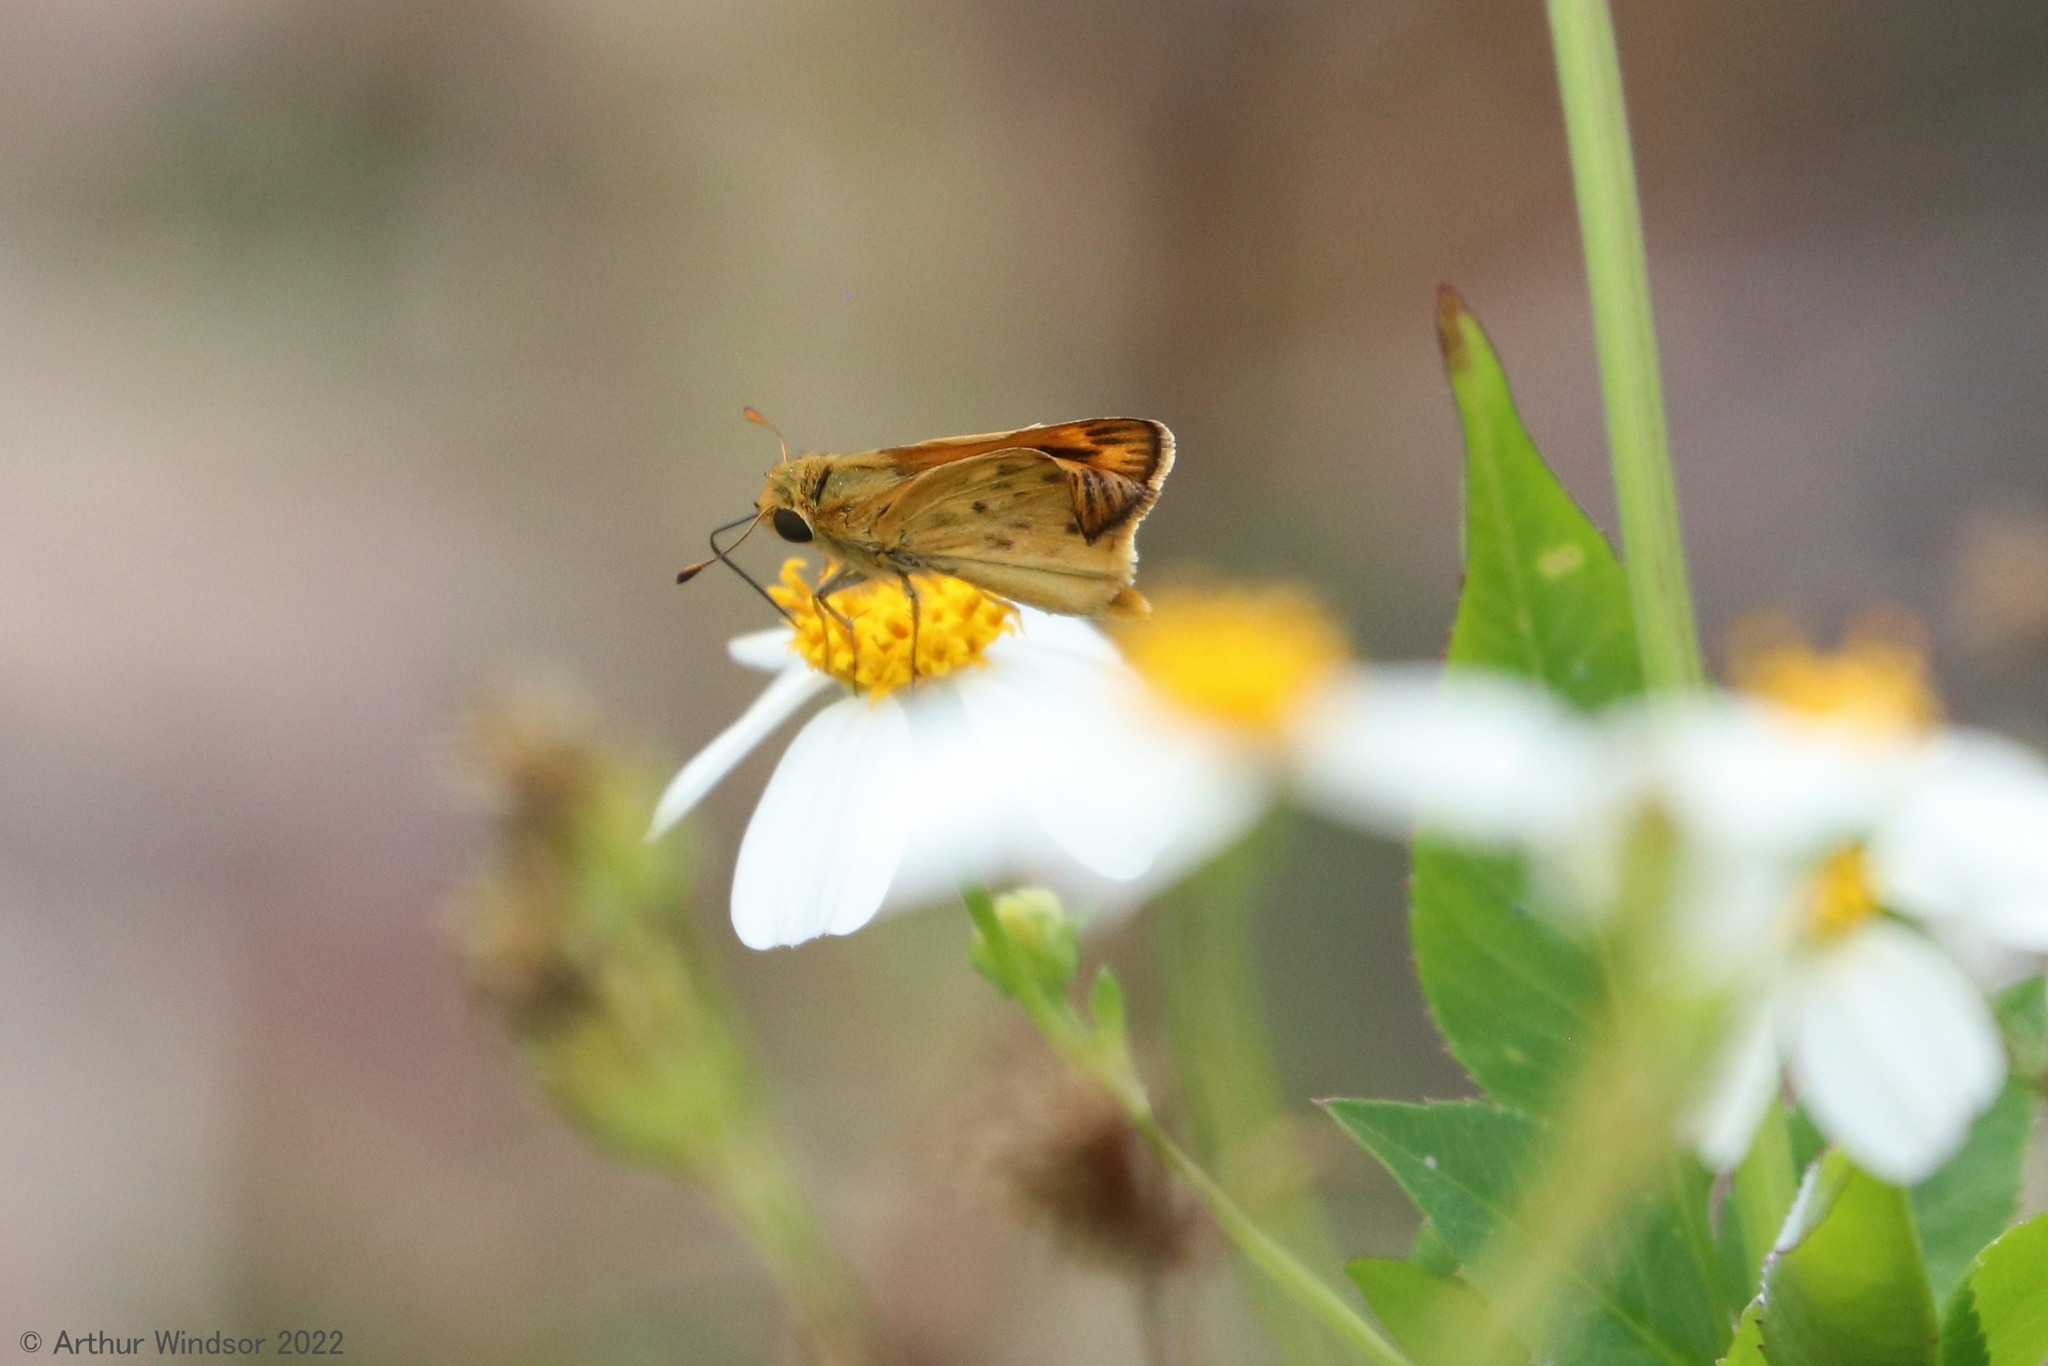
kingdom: Animalia
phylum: Arthropoda
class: Insecta
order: Lepidoptera
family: Hesperiidae
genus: Hylephila
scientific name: Hylephila phyleus
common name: Fiery skipper
